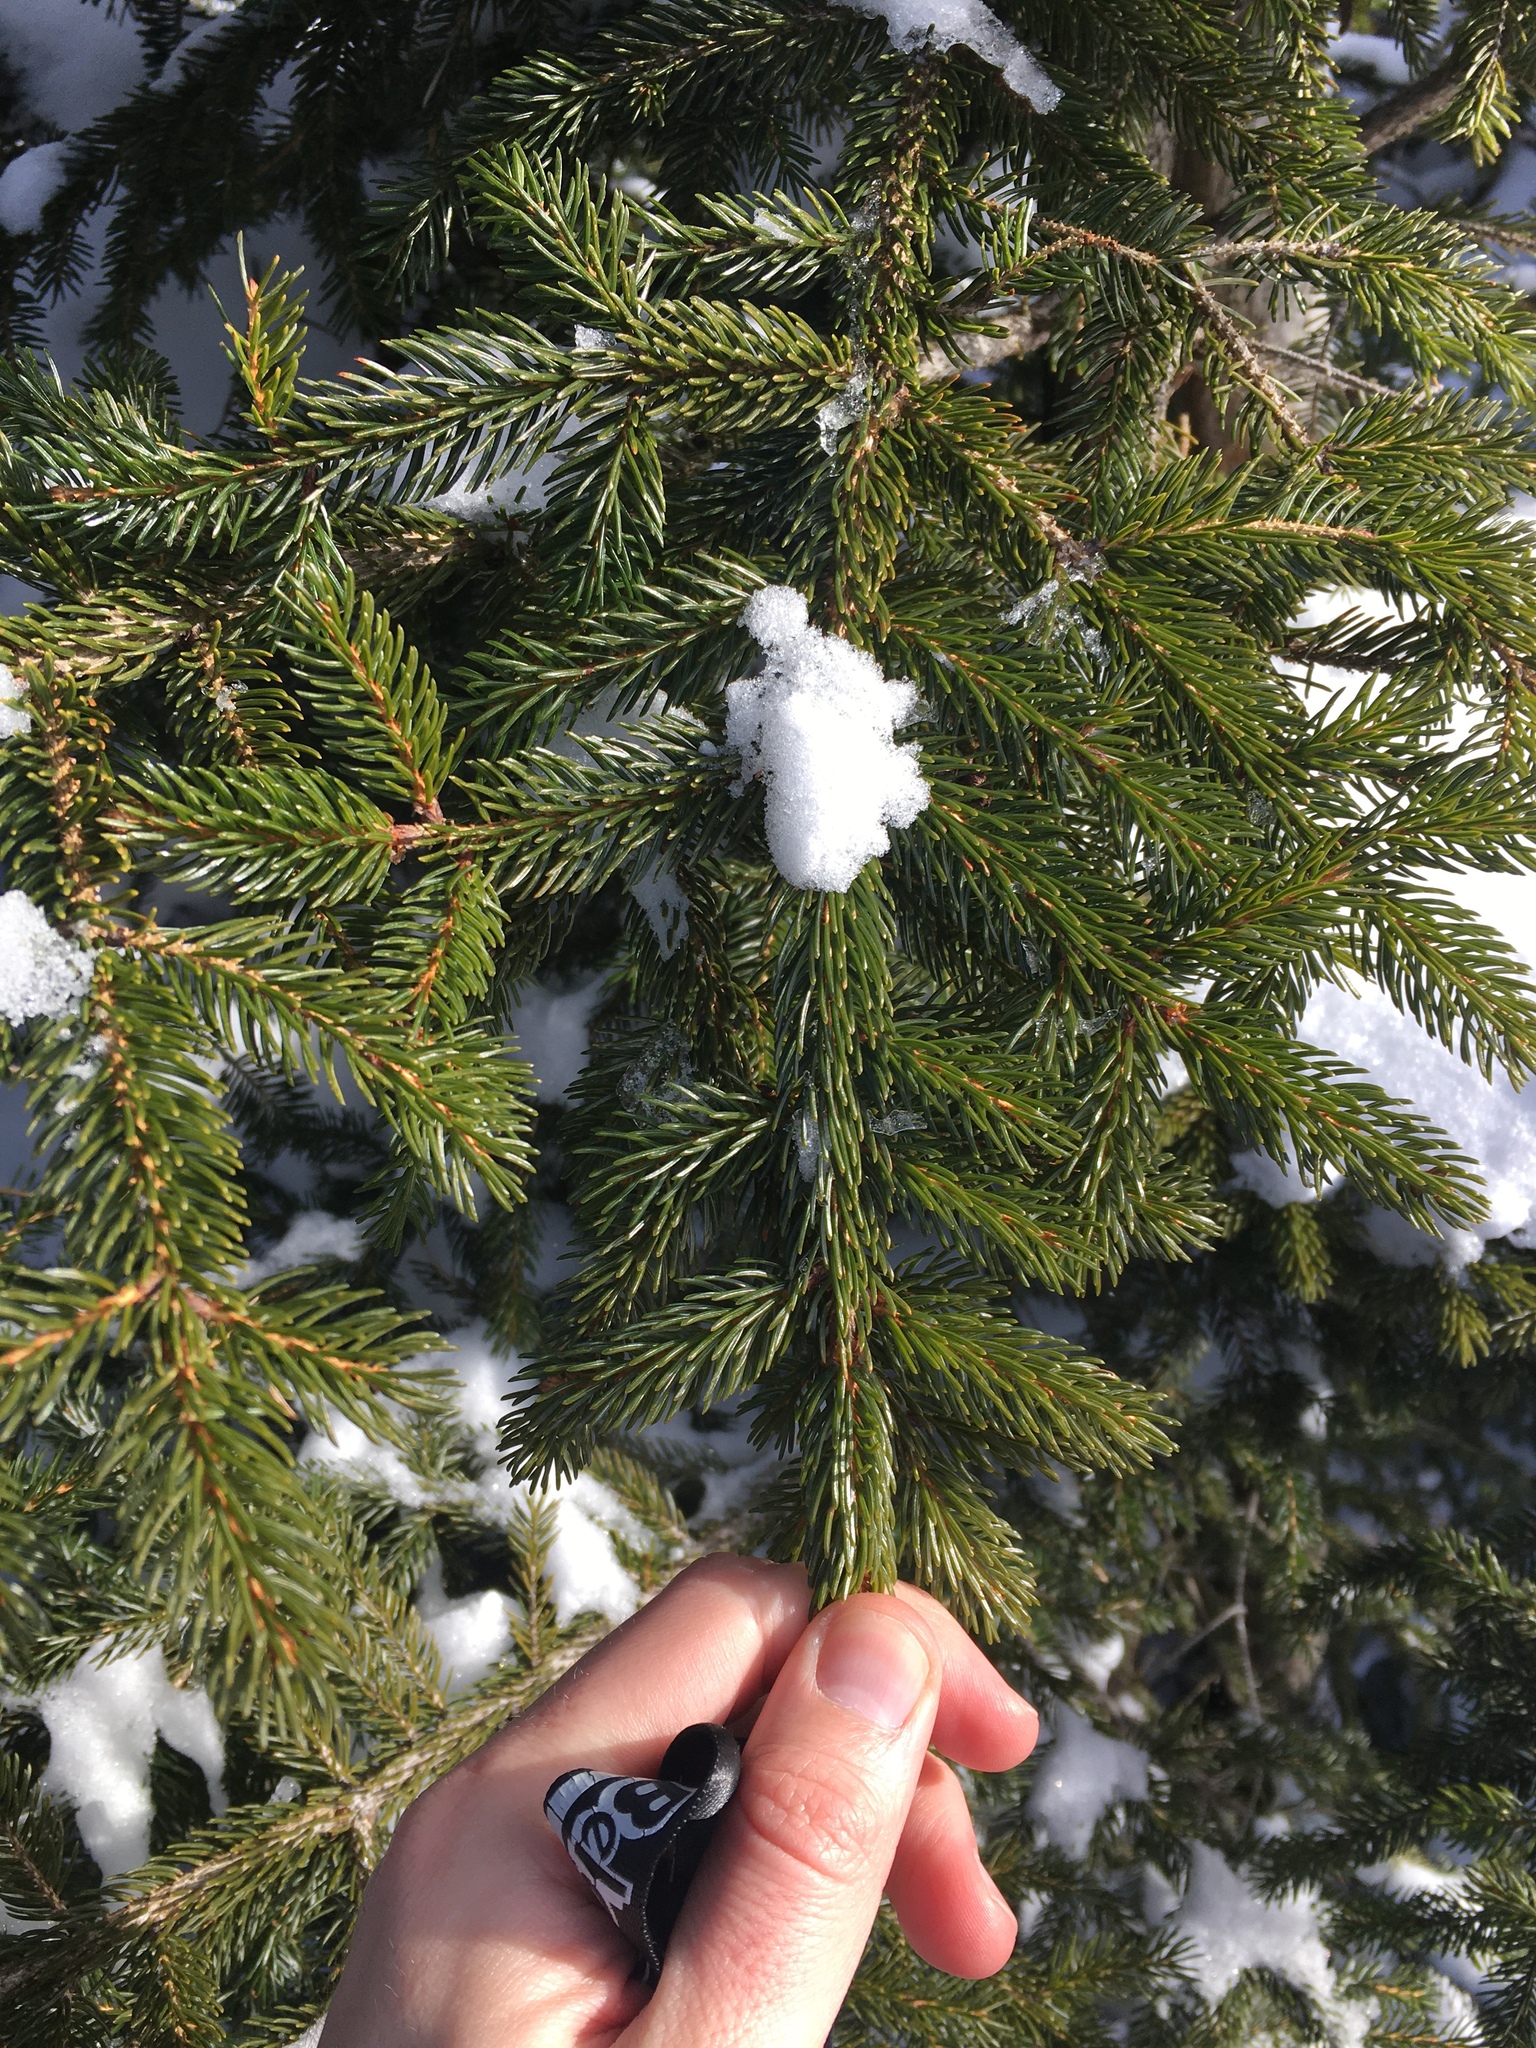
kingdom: Plantae
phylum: Tracheophyta
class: Pinopsida
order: Pinales
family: Pinaceae
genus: Picea
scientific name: Picea rubens
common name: Red spruce
